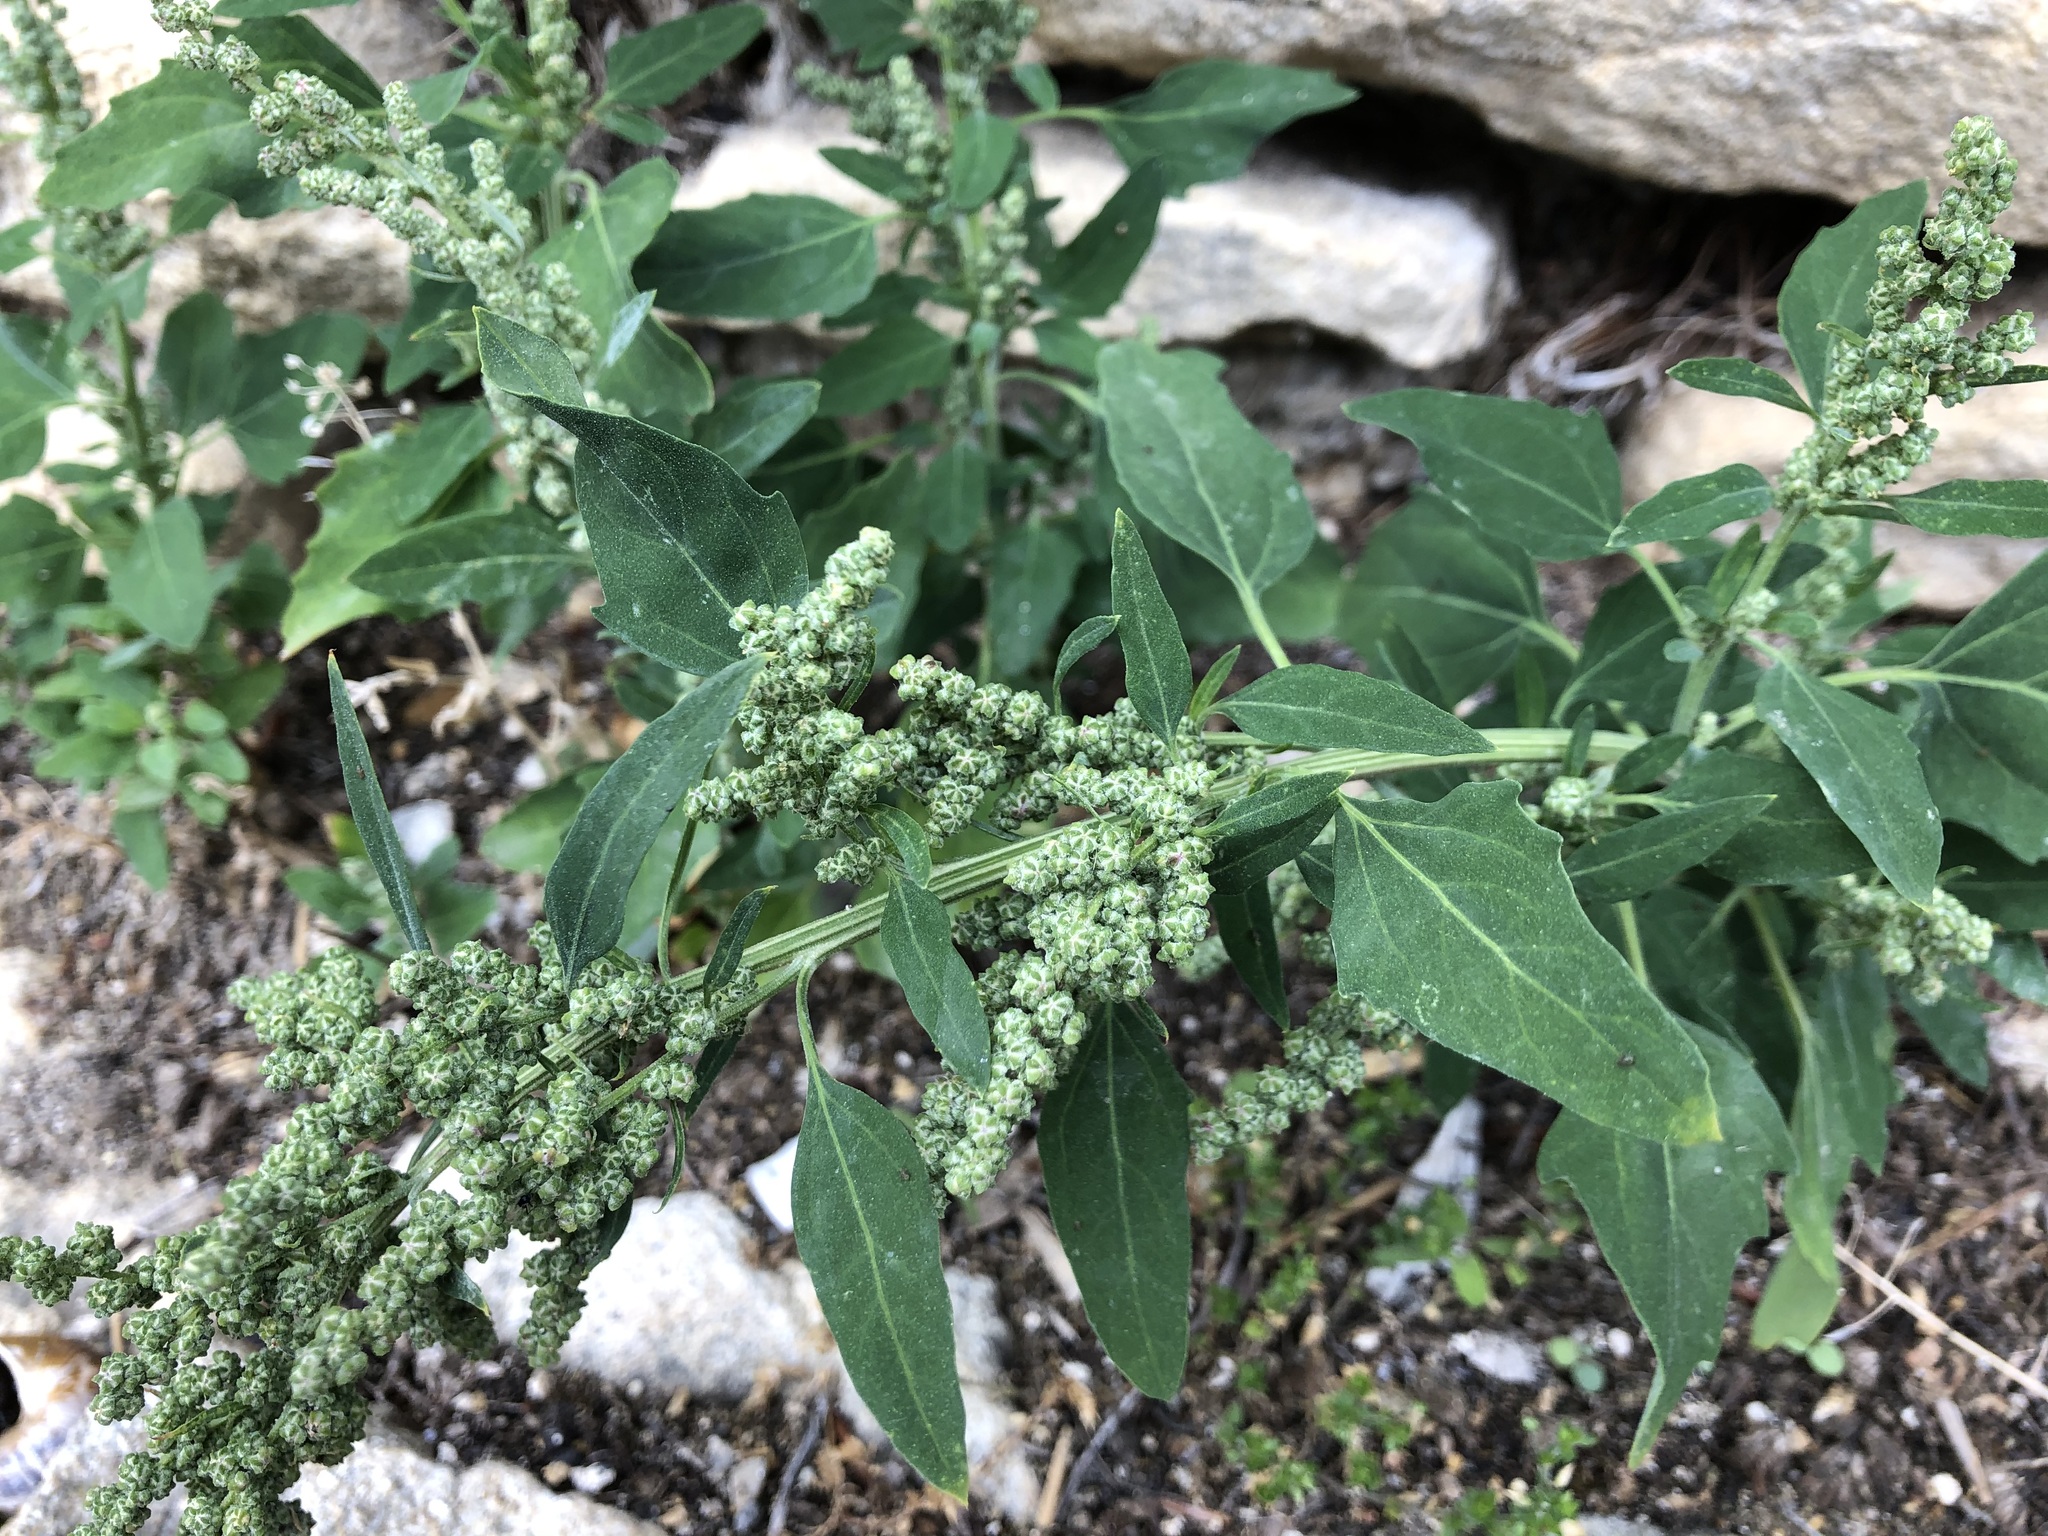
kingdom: Plantae
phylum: Tracheophyta
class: Magnoliopsida
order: Caryophyllales
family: Amaranthaceae
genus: Chenopodium
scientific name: Chenopodium album
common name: Fat-hen
